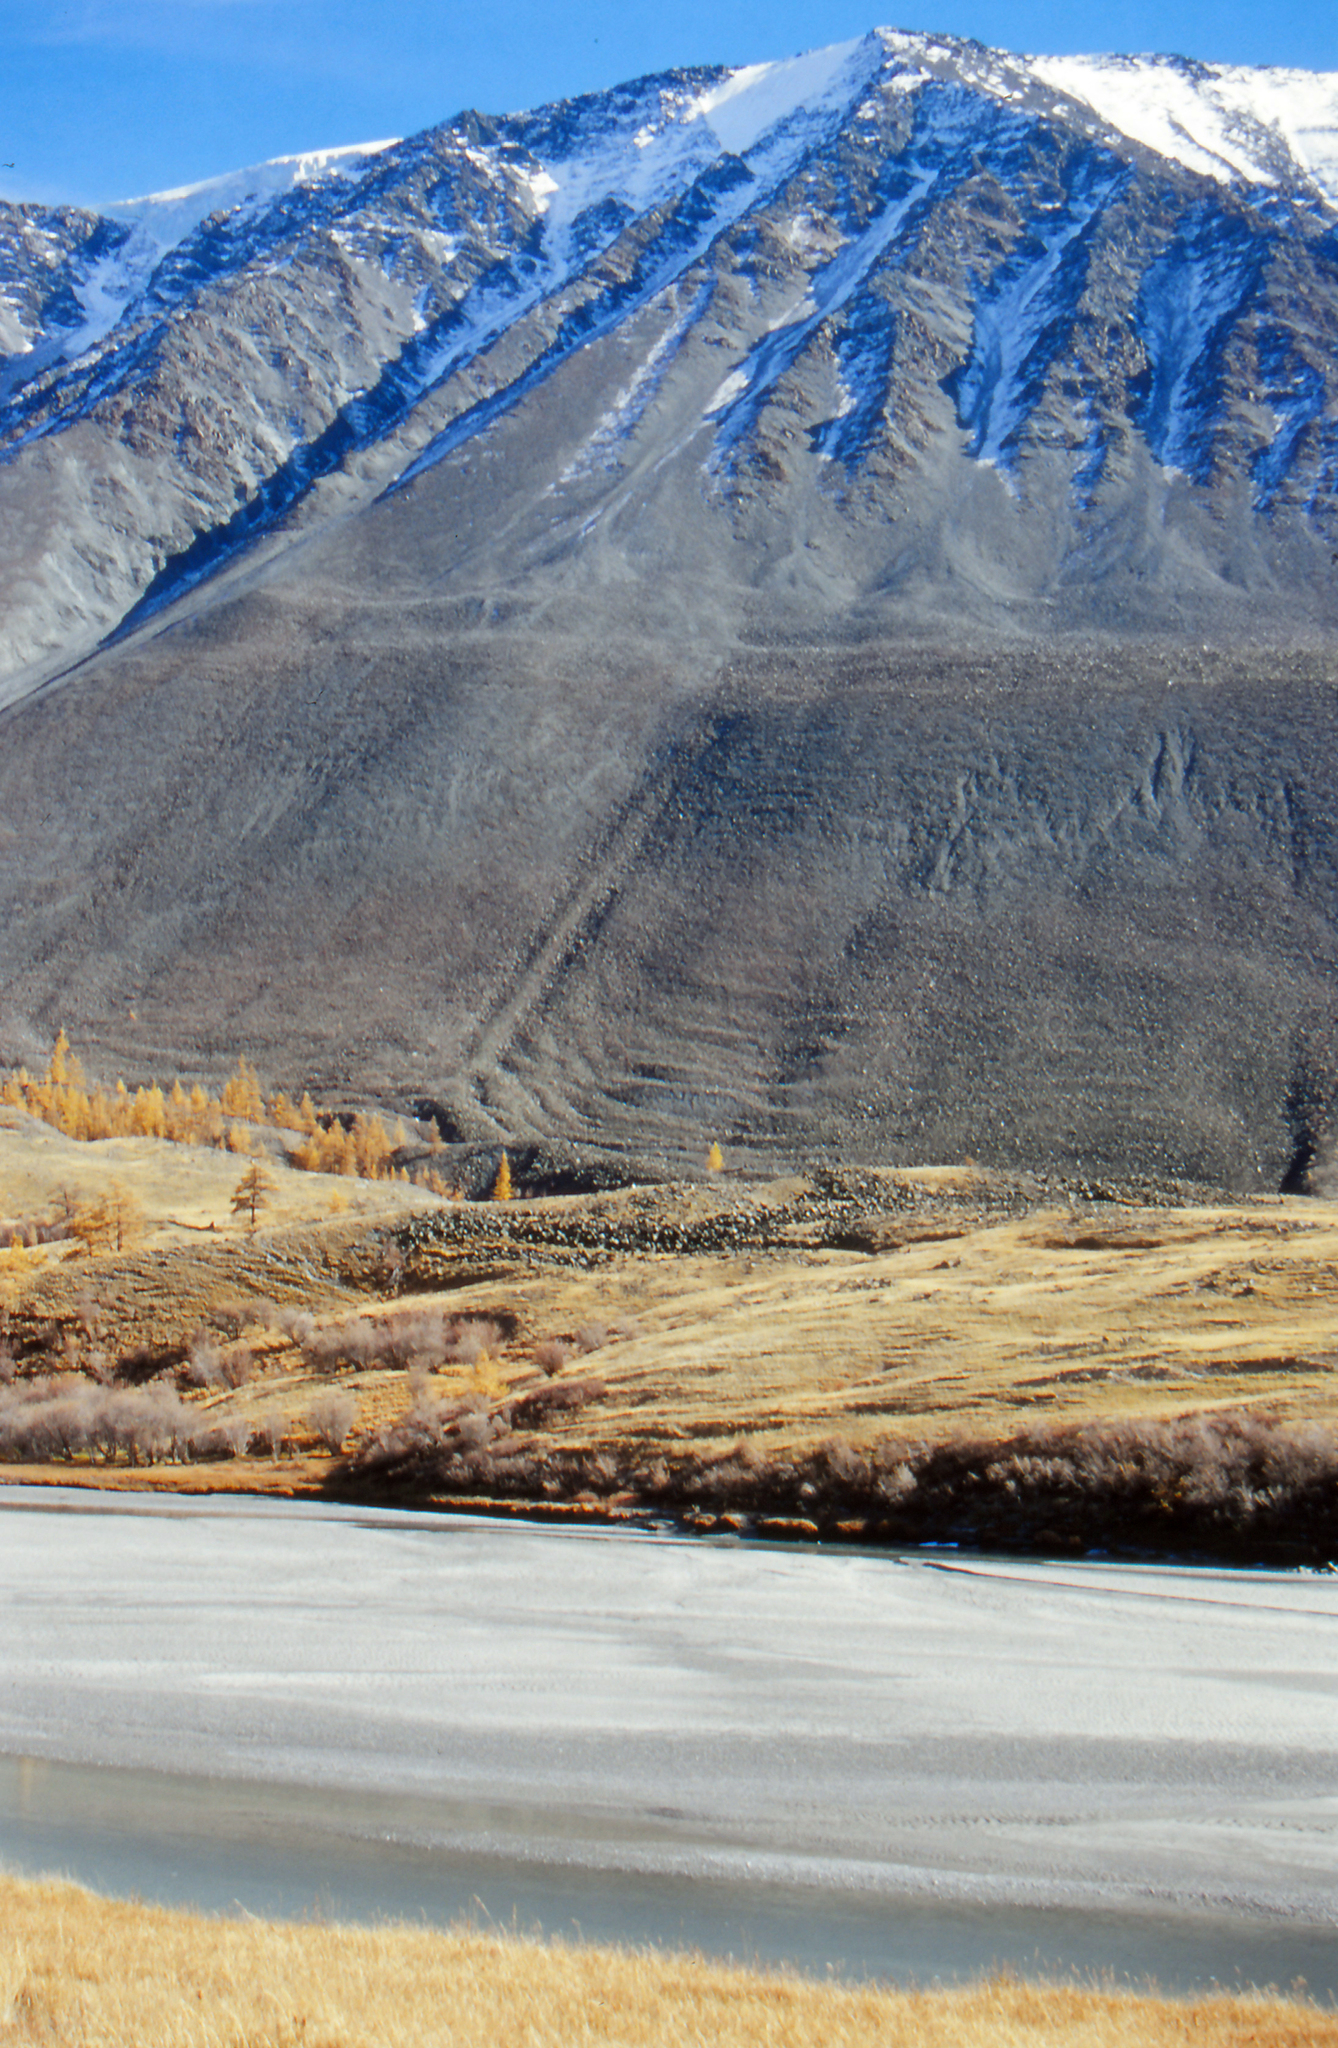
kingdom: Plantae
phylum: Tracheophyta
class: Pinopsida
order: Pinales
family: Pinaceae
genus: Larix
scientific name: Larix sibirica
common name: Siberian larch
